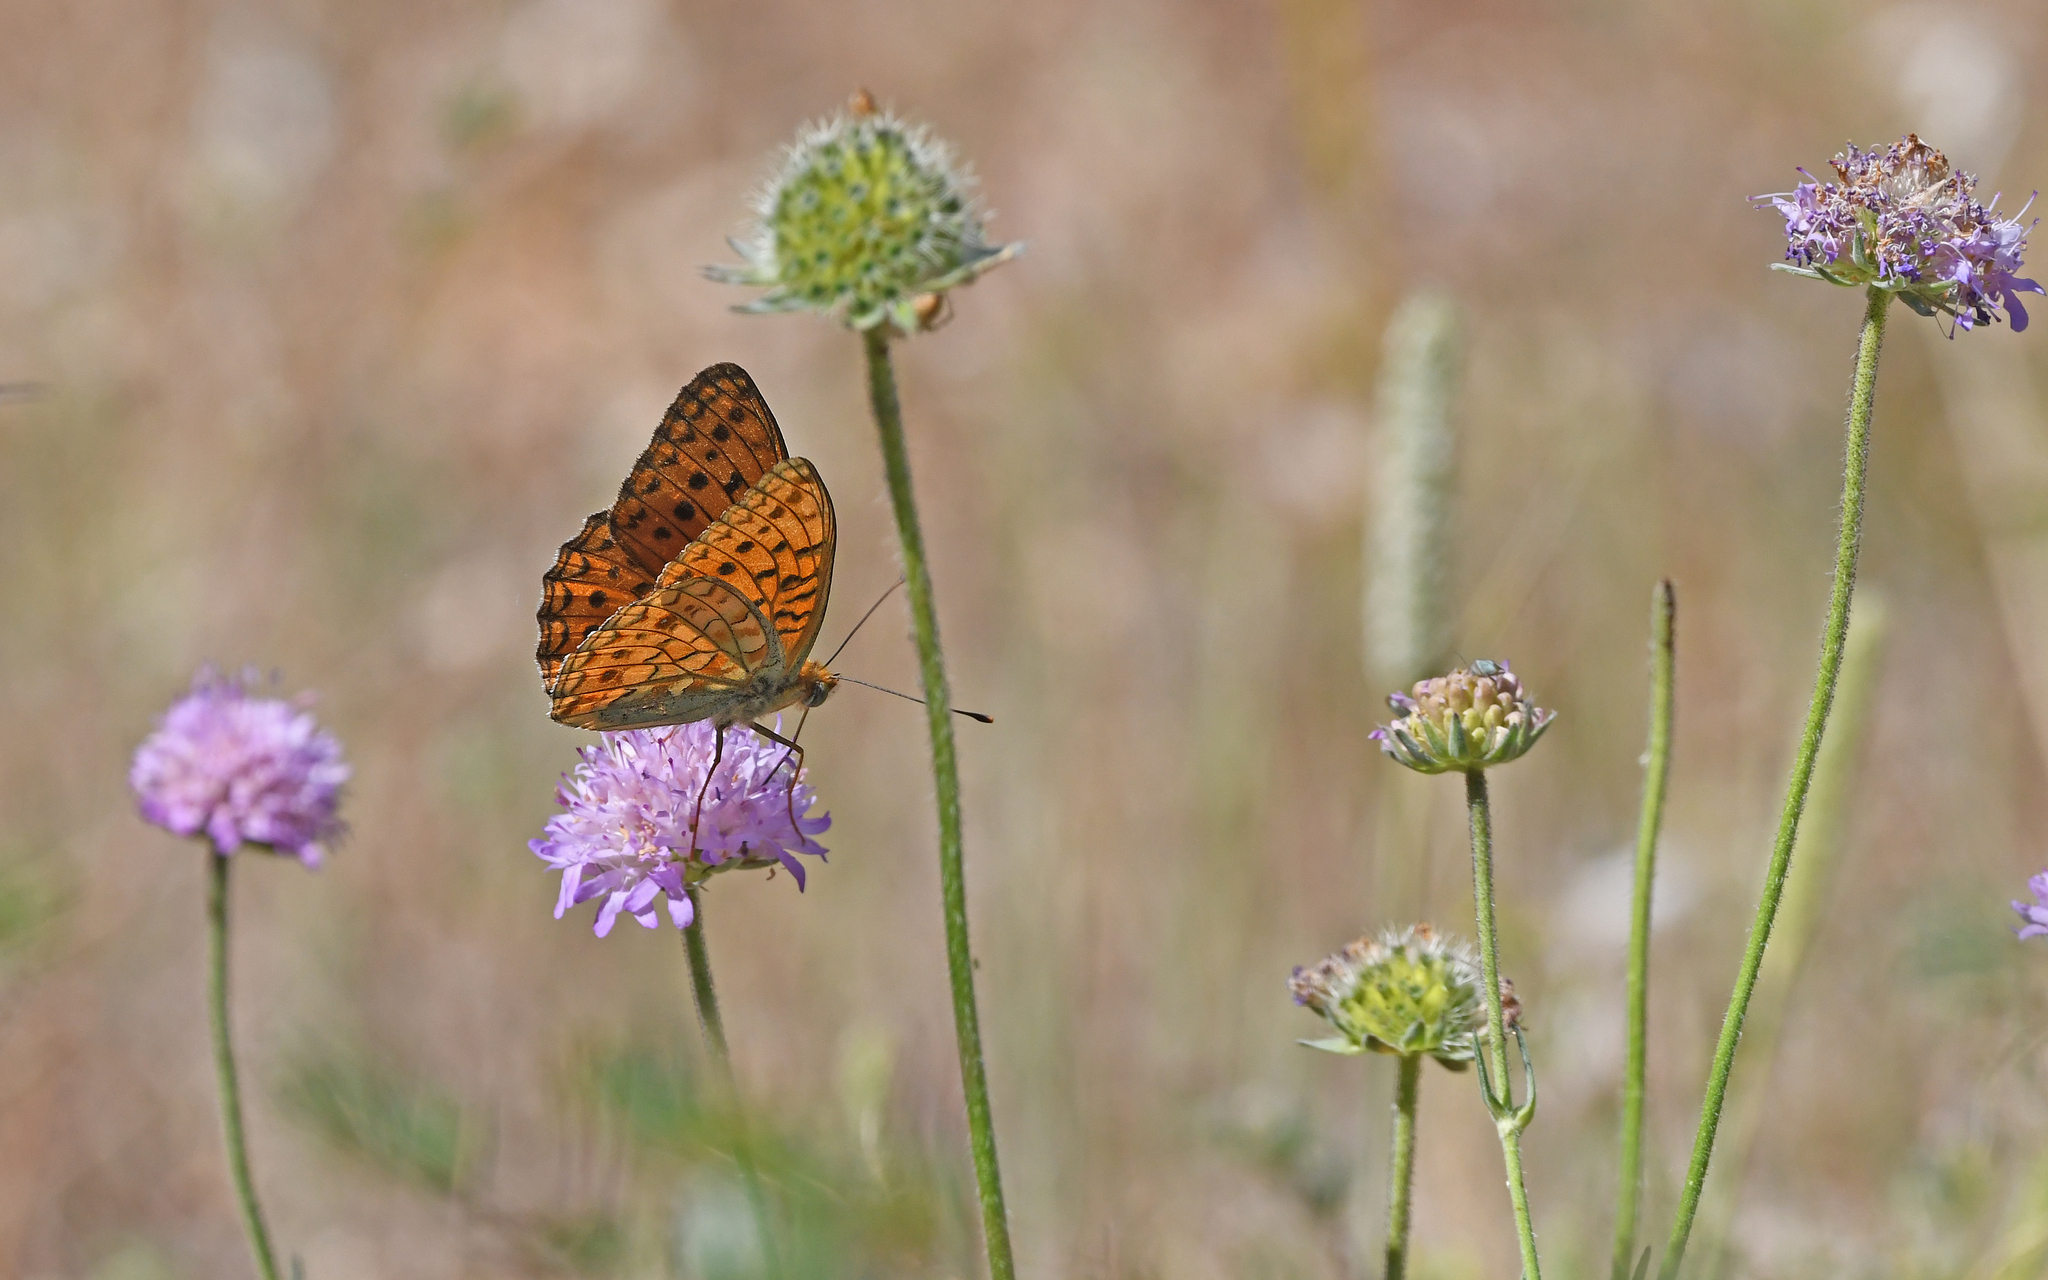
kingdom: Animalia
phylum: Arthropoda
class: Insecta
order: Lepidoptera
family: Nymphalidae
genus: Fabriciana
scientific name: Fabriciana niobe
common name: Niobe fritillary
